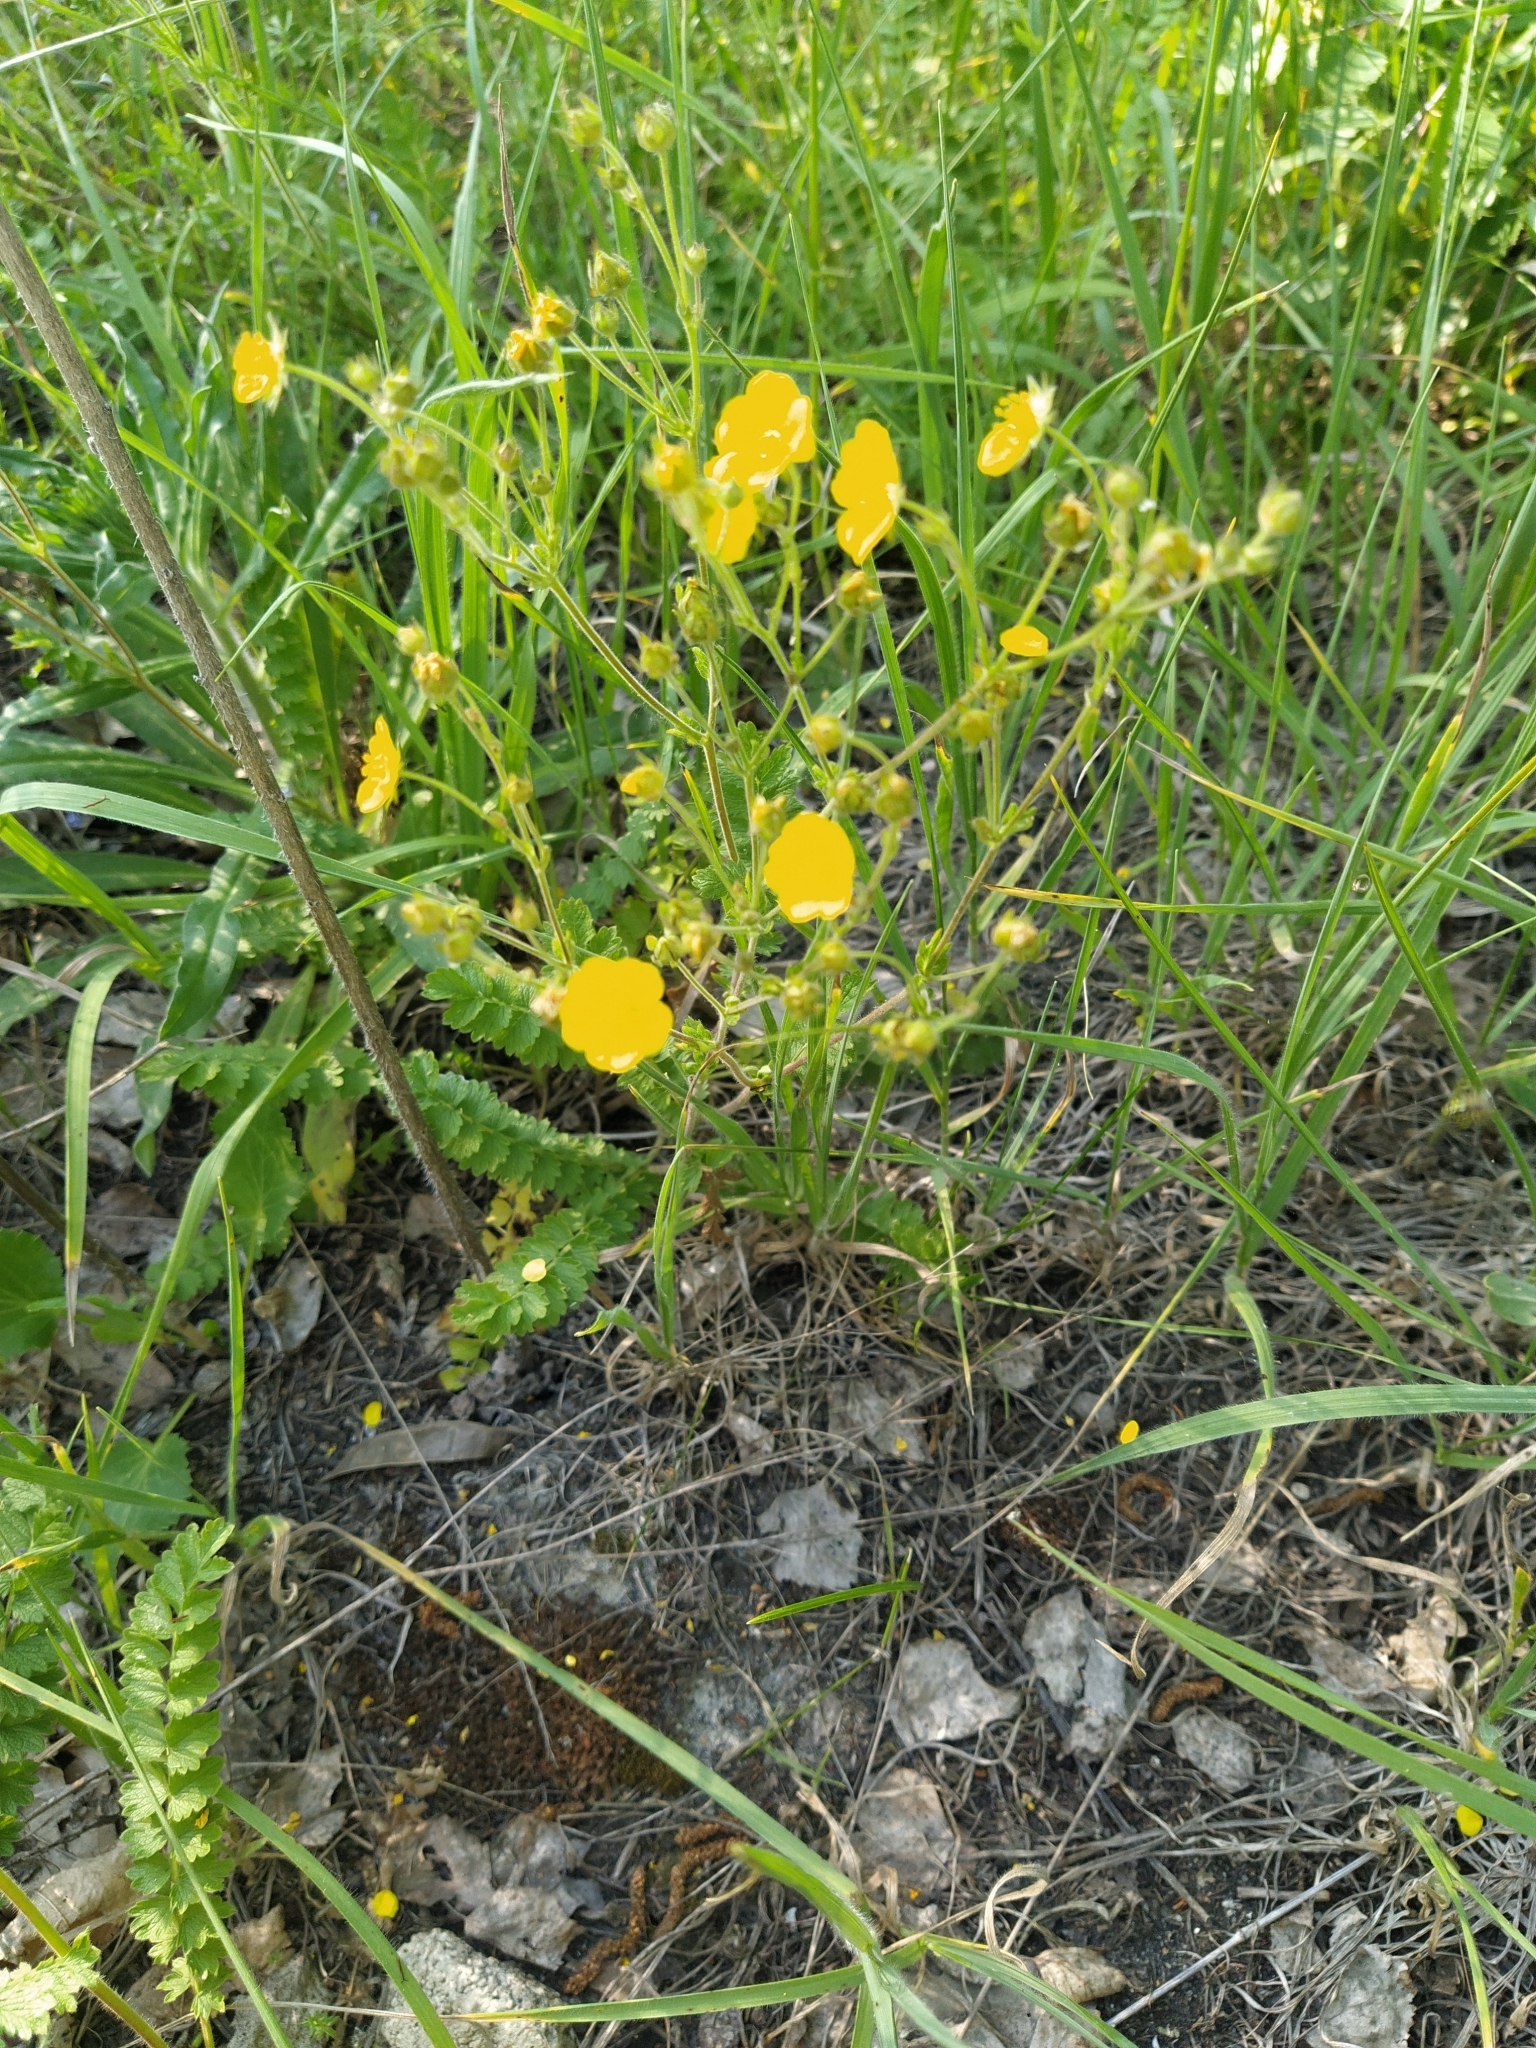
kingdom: Plantae
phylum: Tracheophyta
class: Magnoliopsida
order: Rosales
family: Rosaceae
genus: Potentilla
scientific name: Potentilla pimpinelloides
